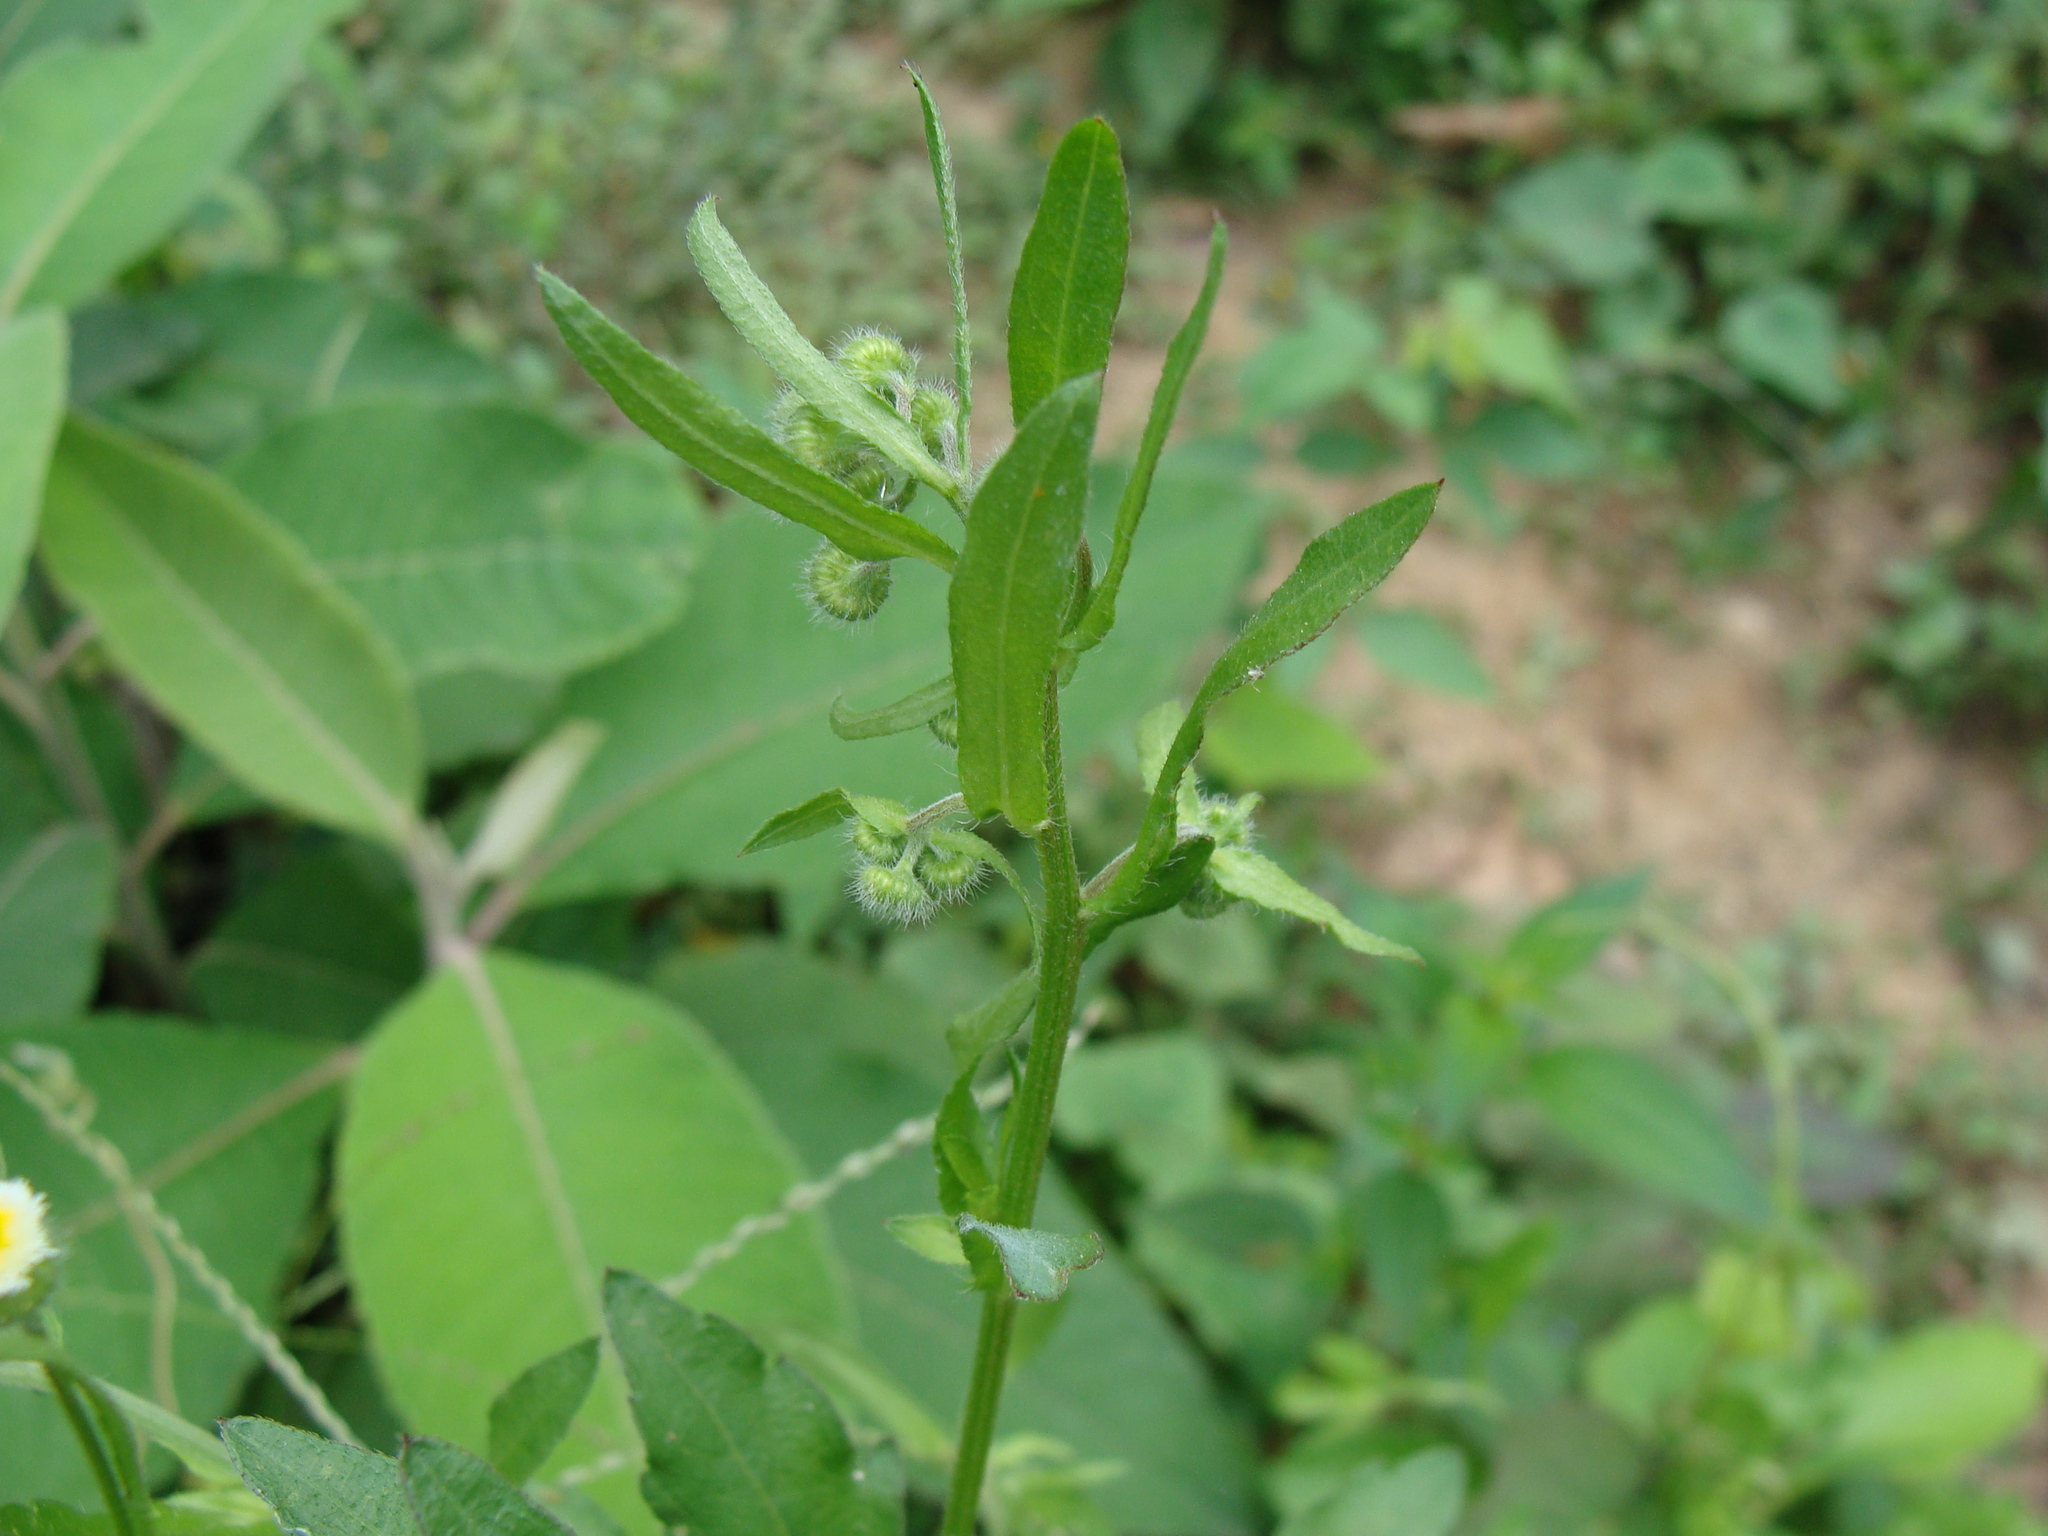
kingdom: Plantae
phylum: Tracheophyta
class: Magnoliopsida
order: Asterales
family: Asteraceae
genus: Erigeron
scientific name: Erigeron laevigatus
